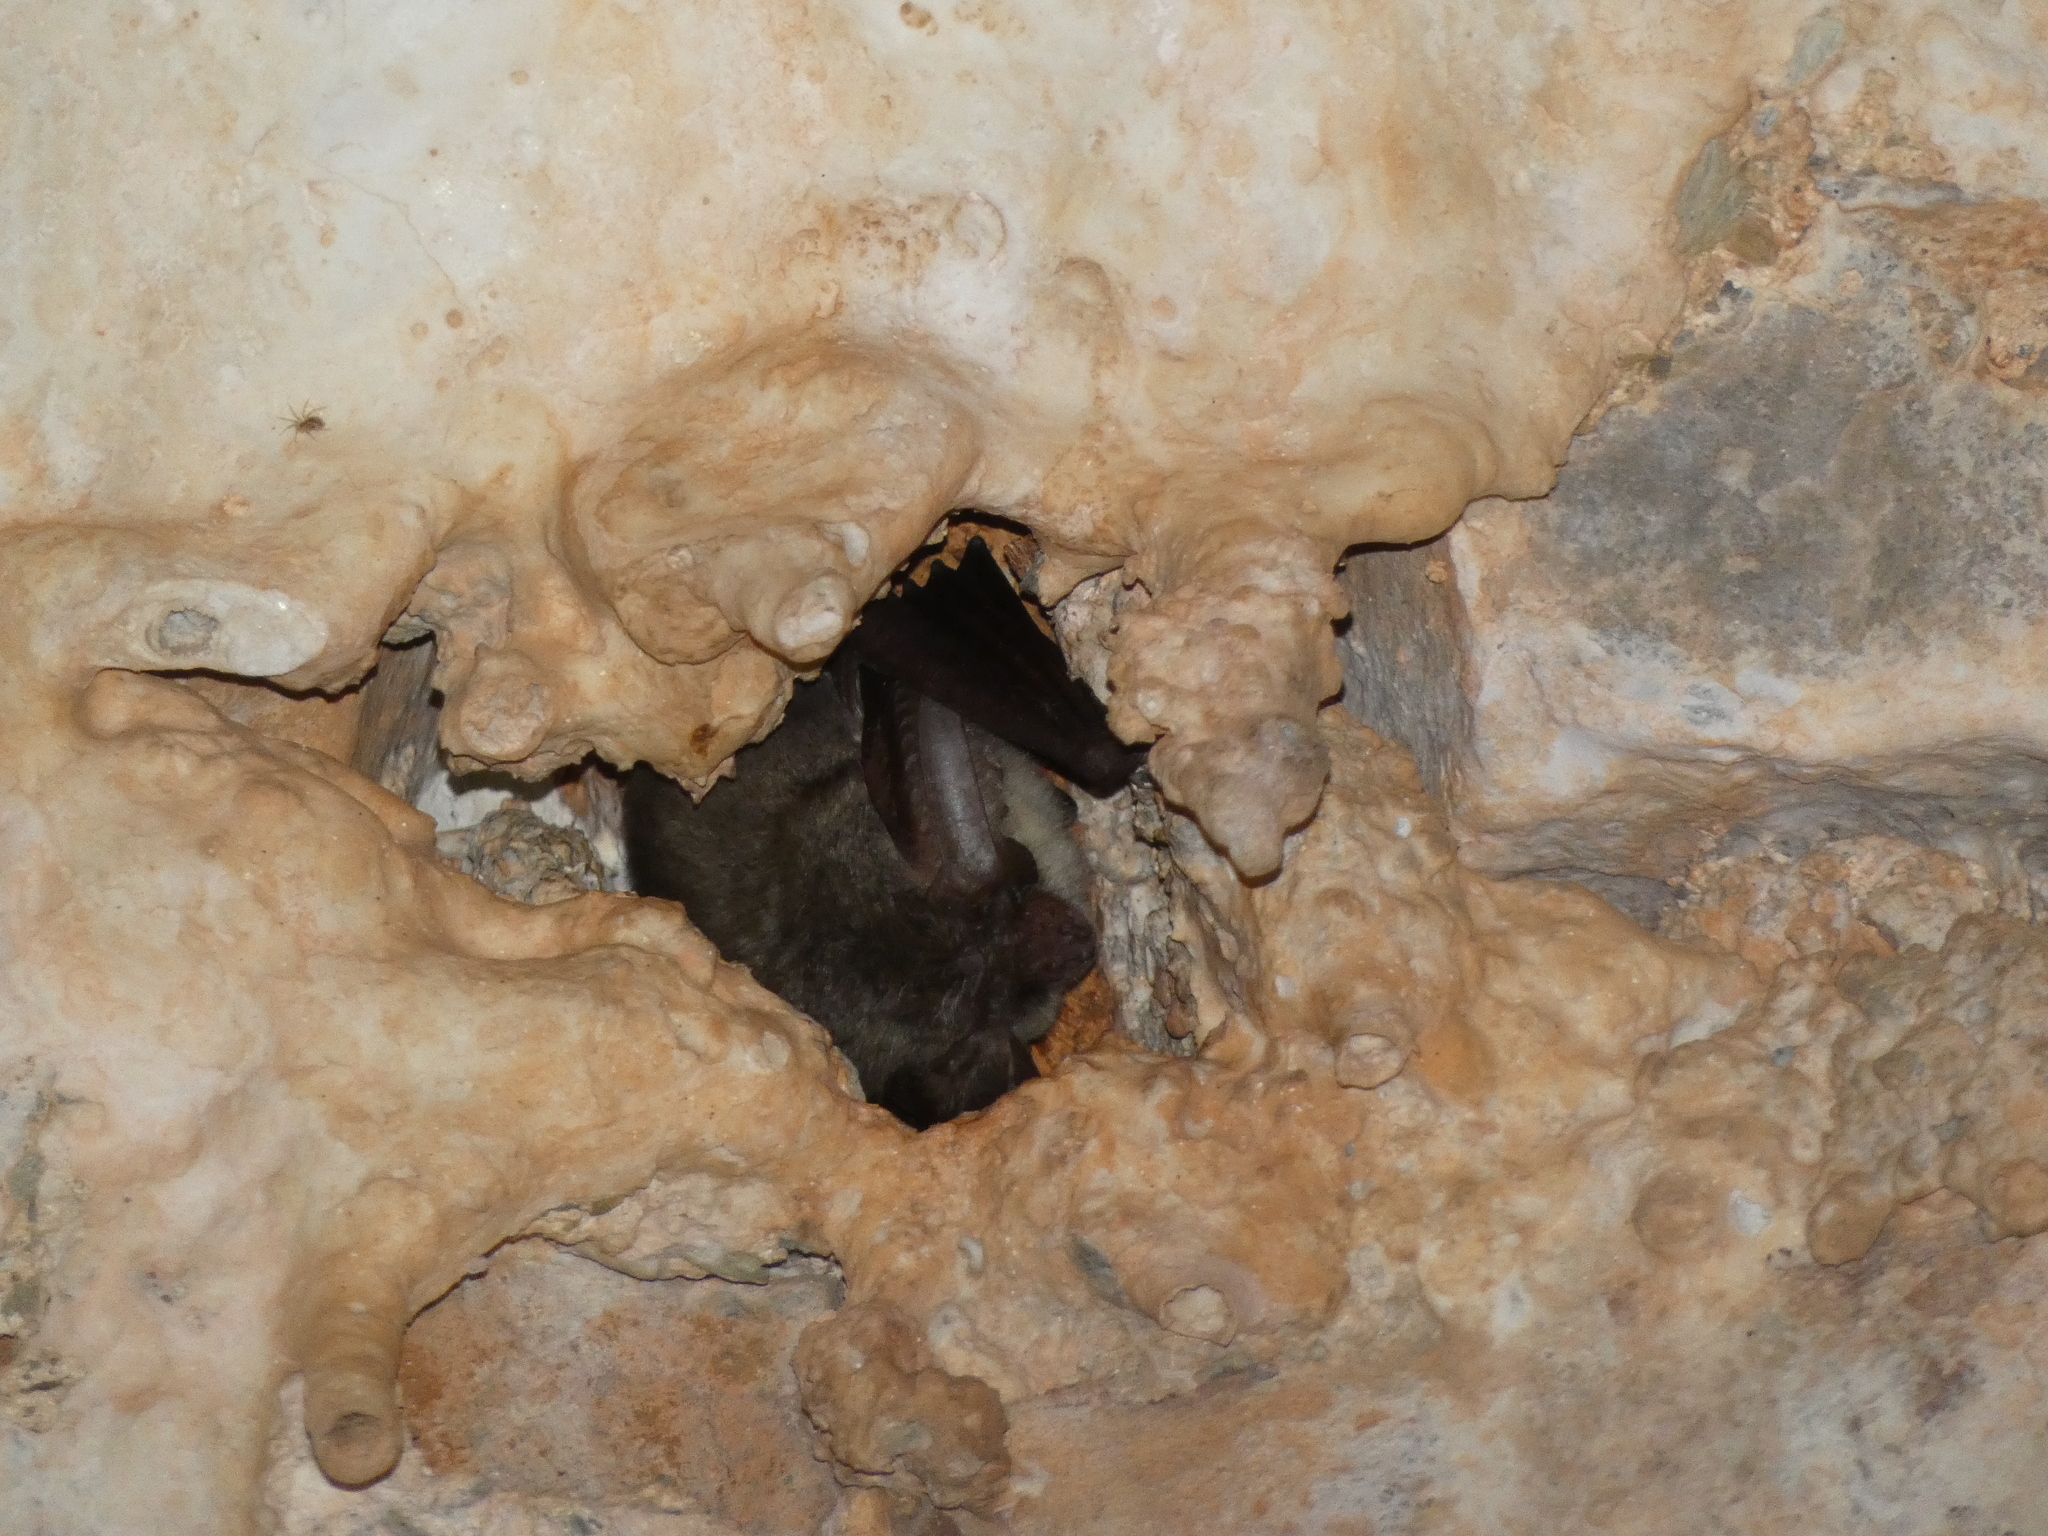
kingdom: Animalia
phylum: Chordata
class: Mammalia
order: Chiroptera
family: Vespertilionidae
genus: Plecotus
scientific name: Plecotus
